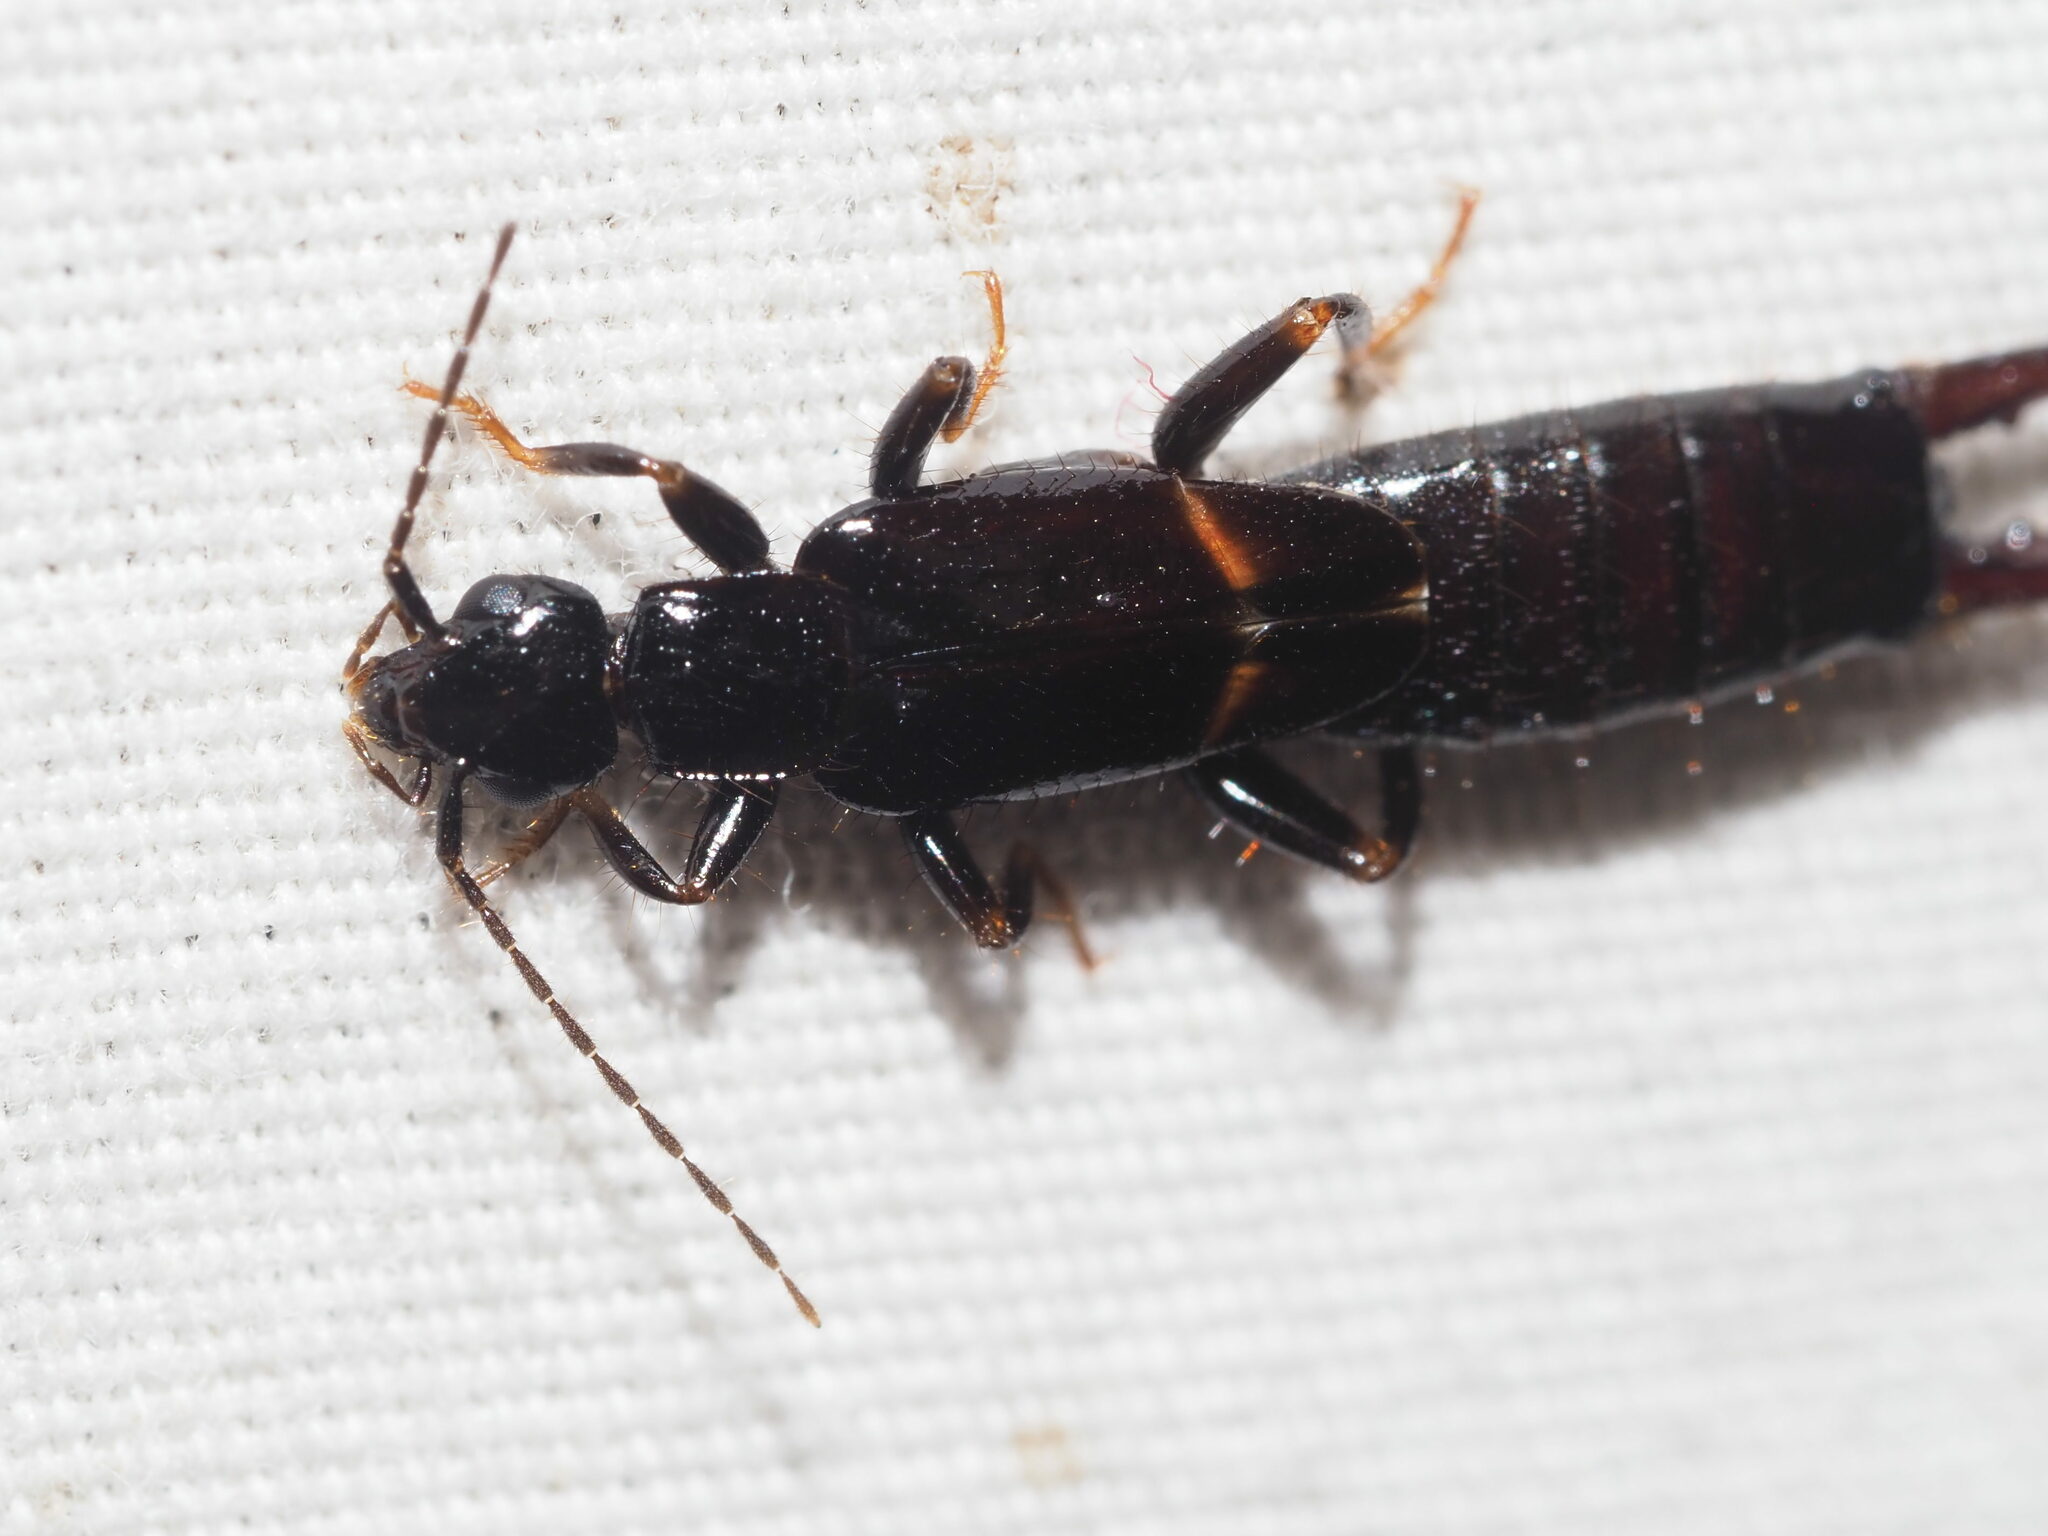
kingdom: Animalia
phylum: Arthropoda
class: Insecta
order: Dermaptera
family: Spongiphoridae
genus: Sphingolabis
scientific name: Sphingolabis hawaiiensis
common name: Earwig
